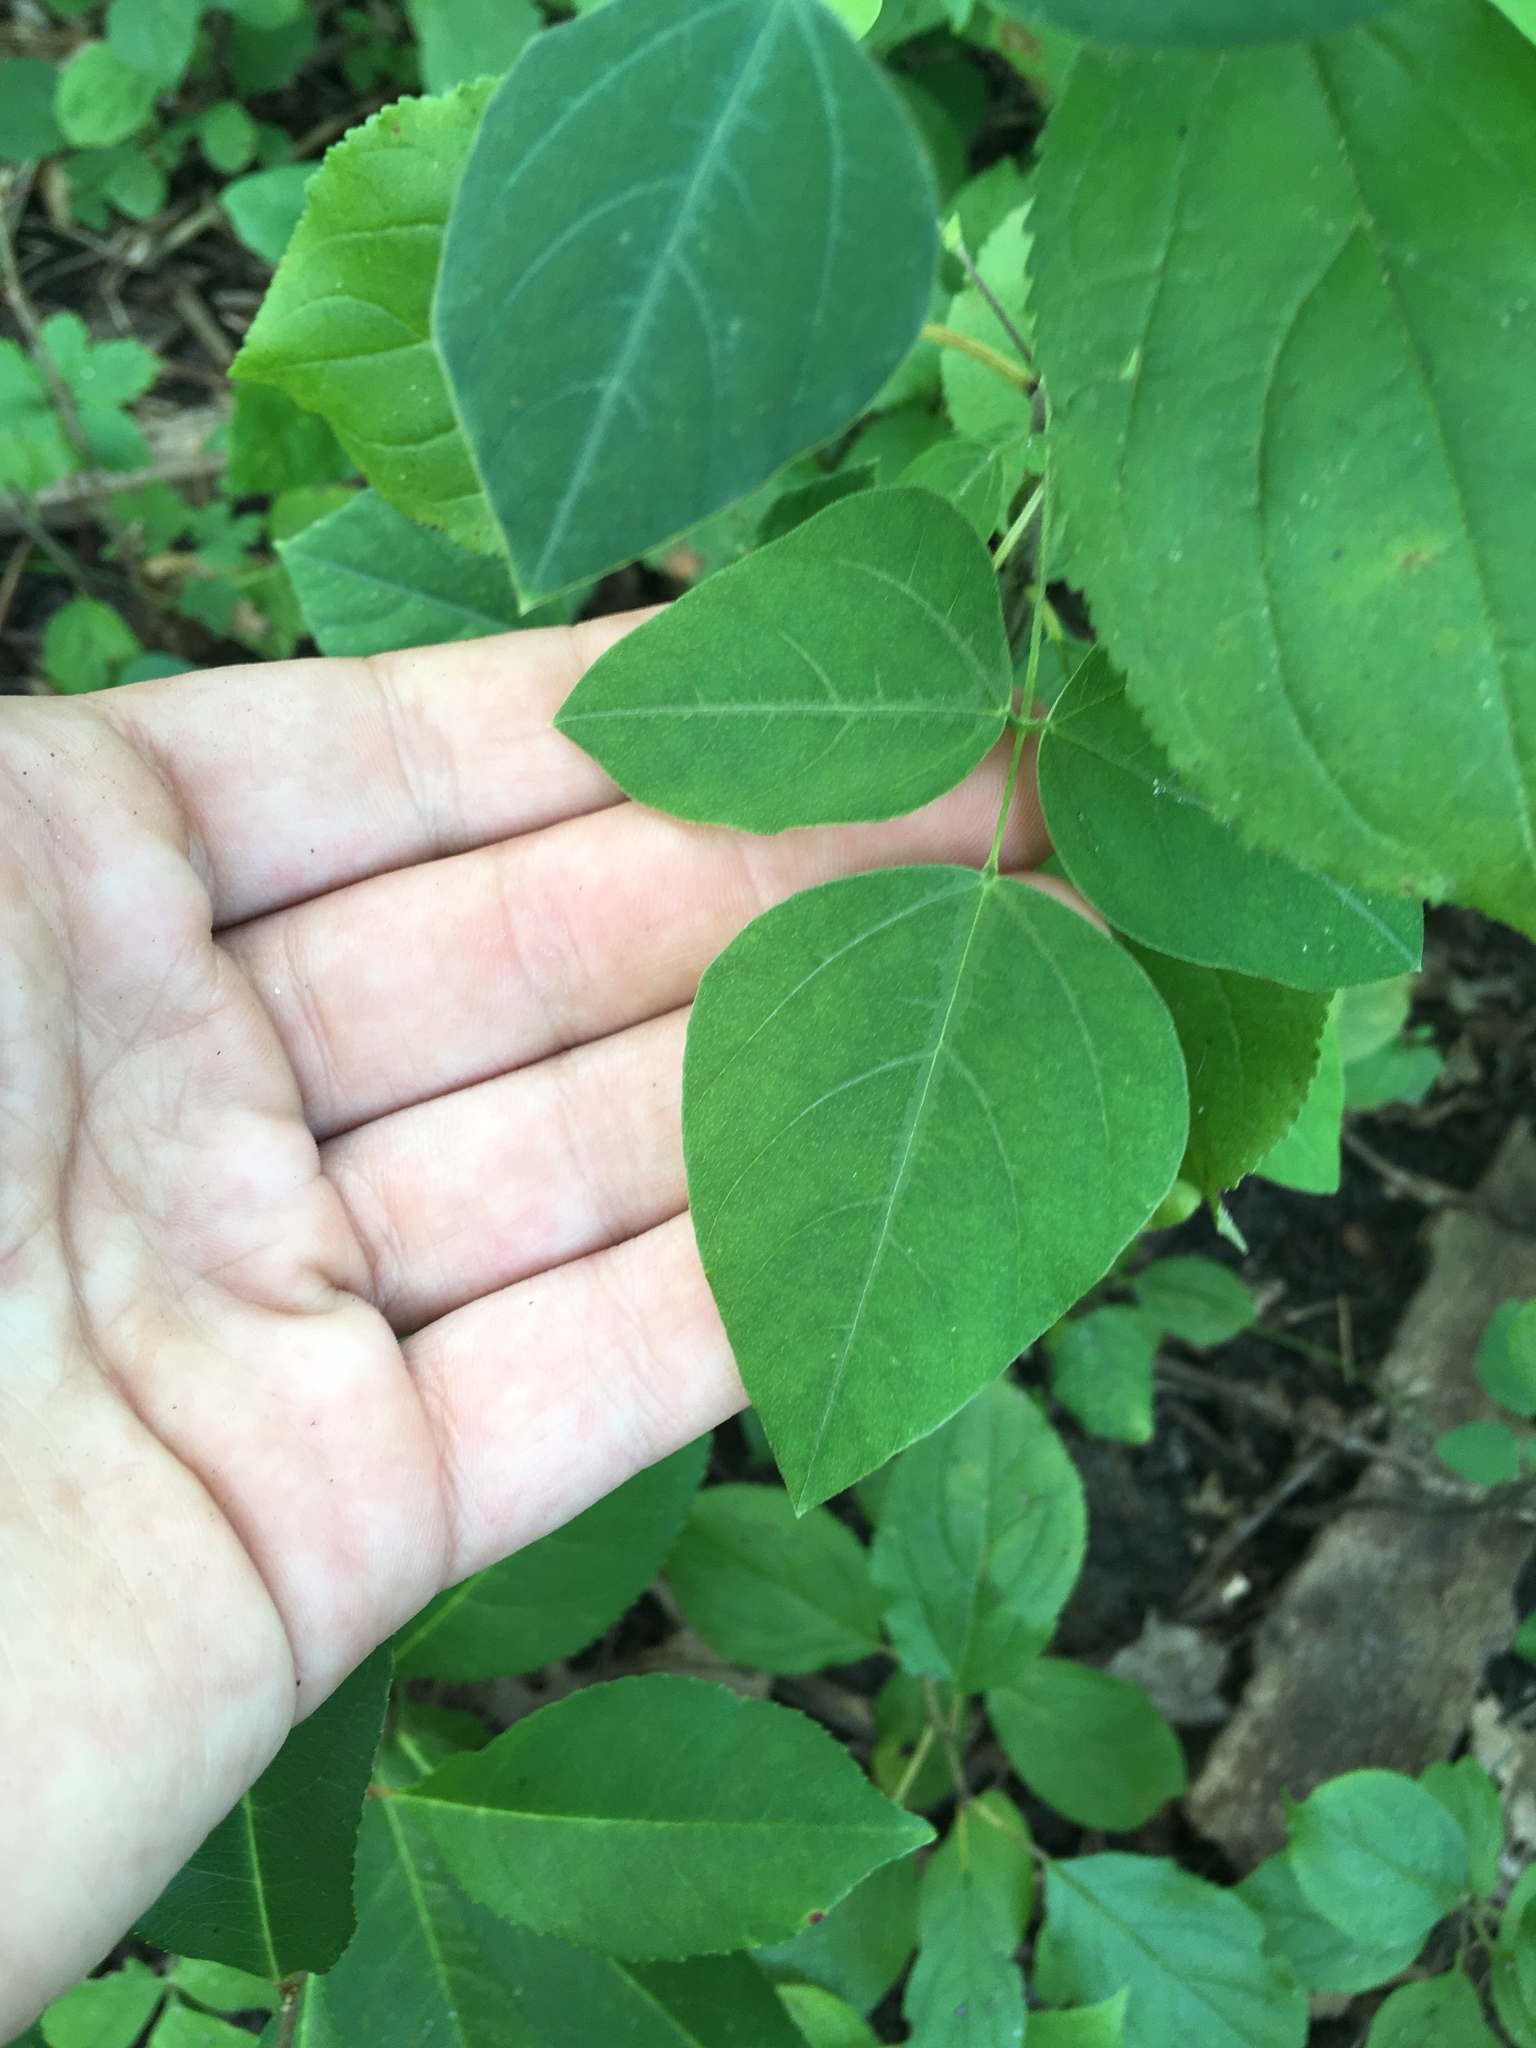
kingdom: Plantae
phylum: Tracheophyta
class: Magnoliopsida
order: Fabales
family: Fabaceae
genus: Amphicarpaea
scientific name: Amphicarpaea bracteata
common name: American hog peanut
